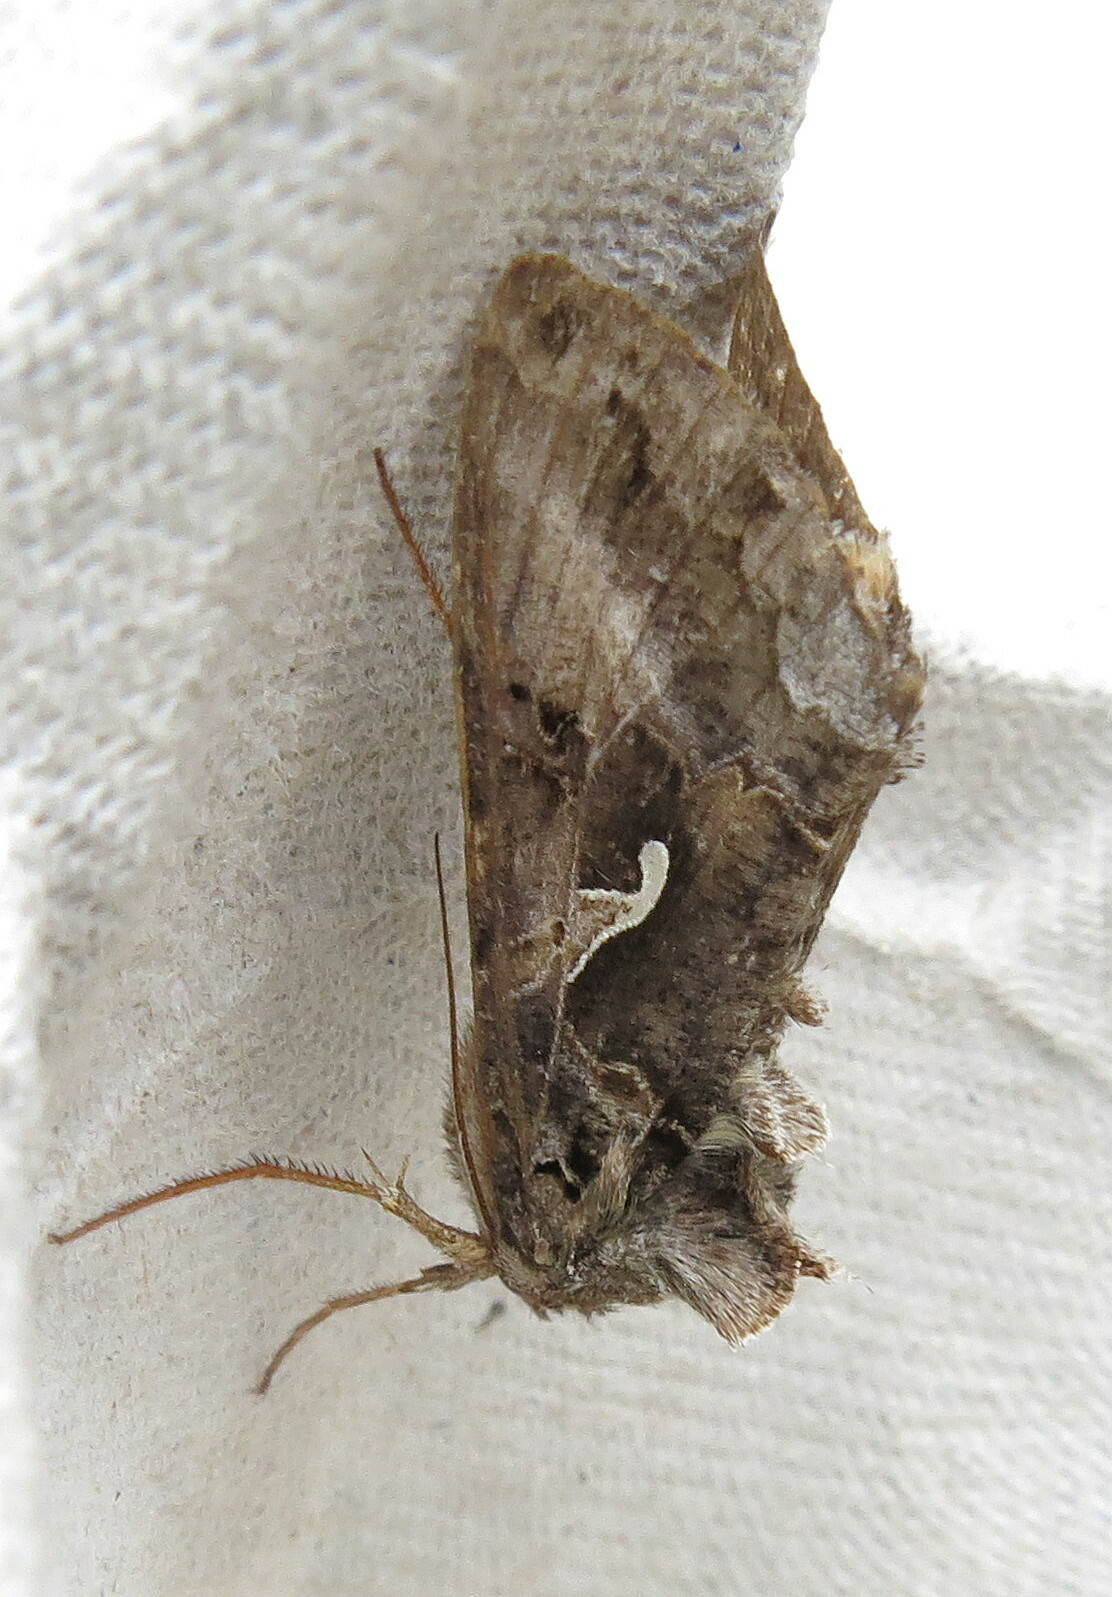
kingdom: Animalia
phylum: Arthropoda
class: Insecta
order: Lepidoptera
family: Noctuidae
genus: Autographa
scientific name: Autographa gamma
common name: Silver y
